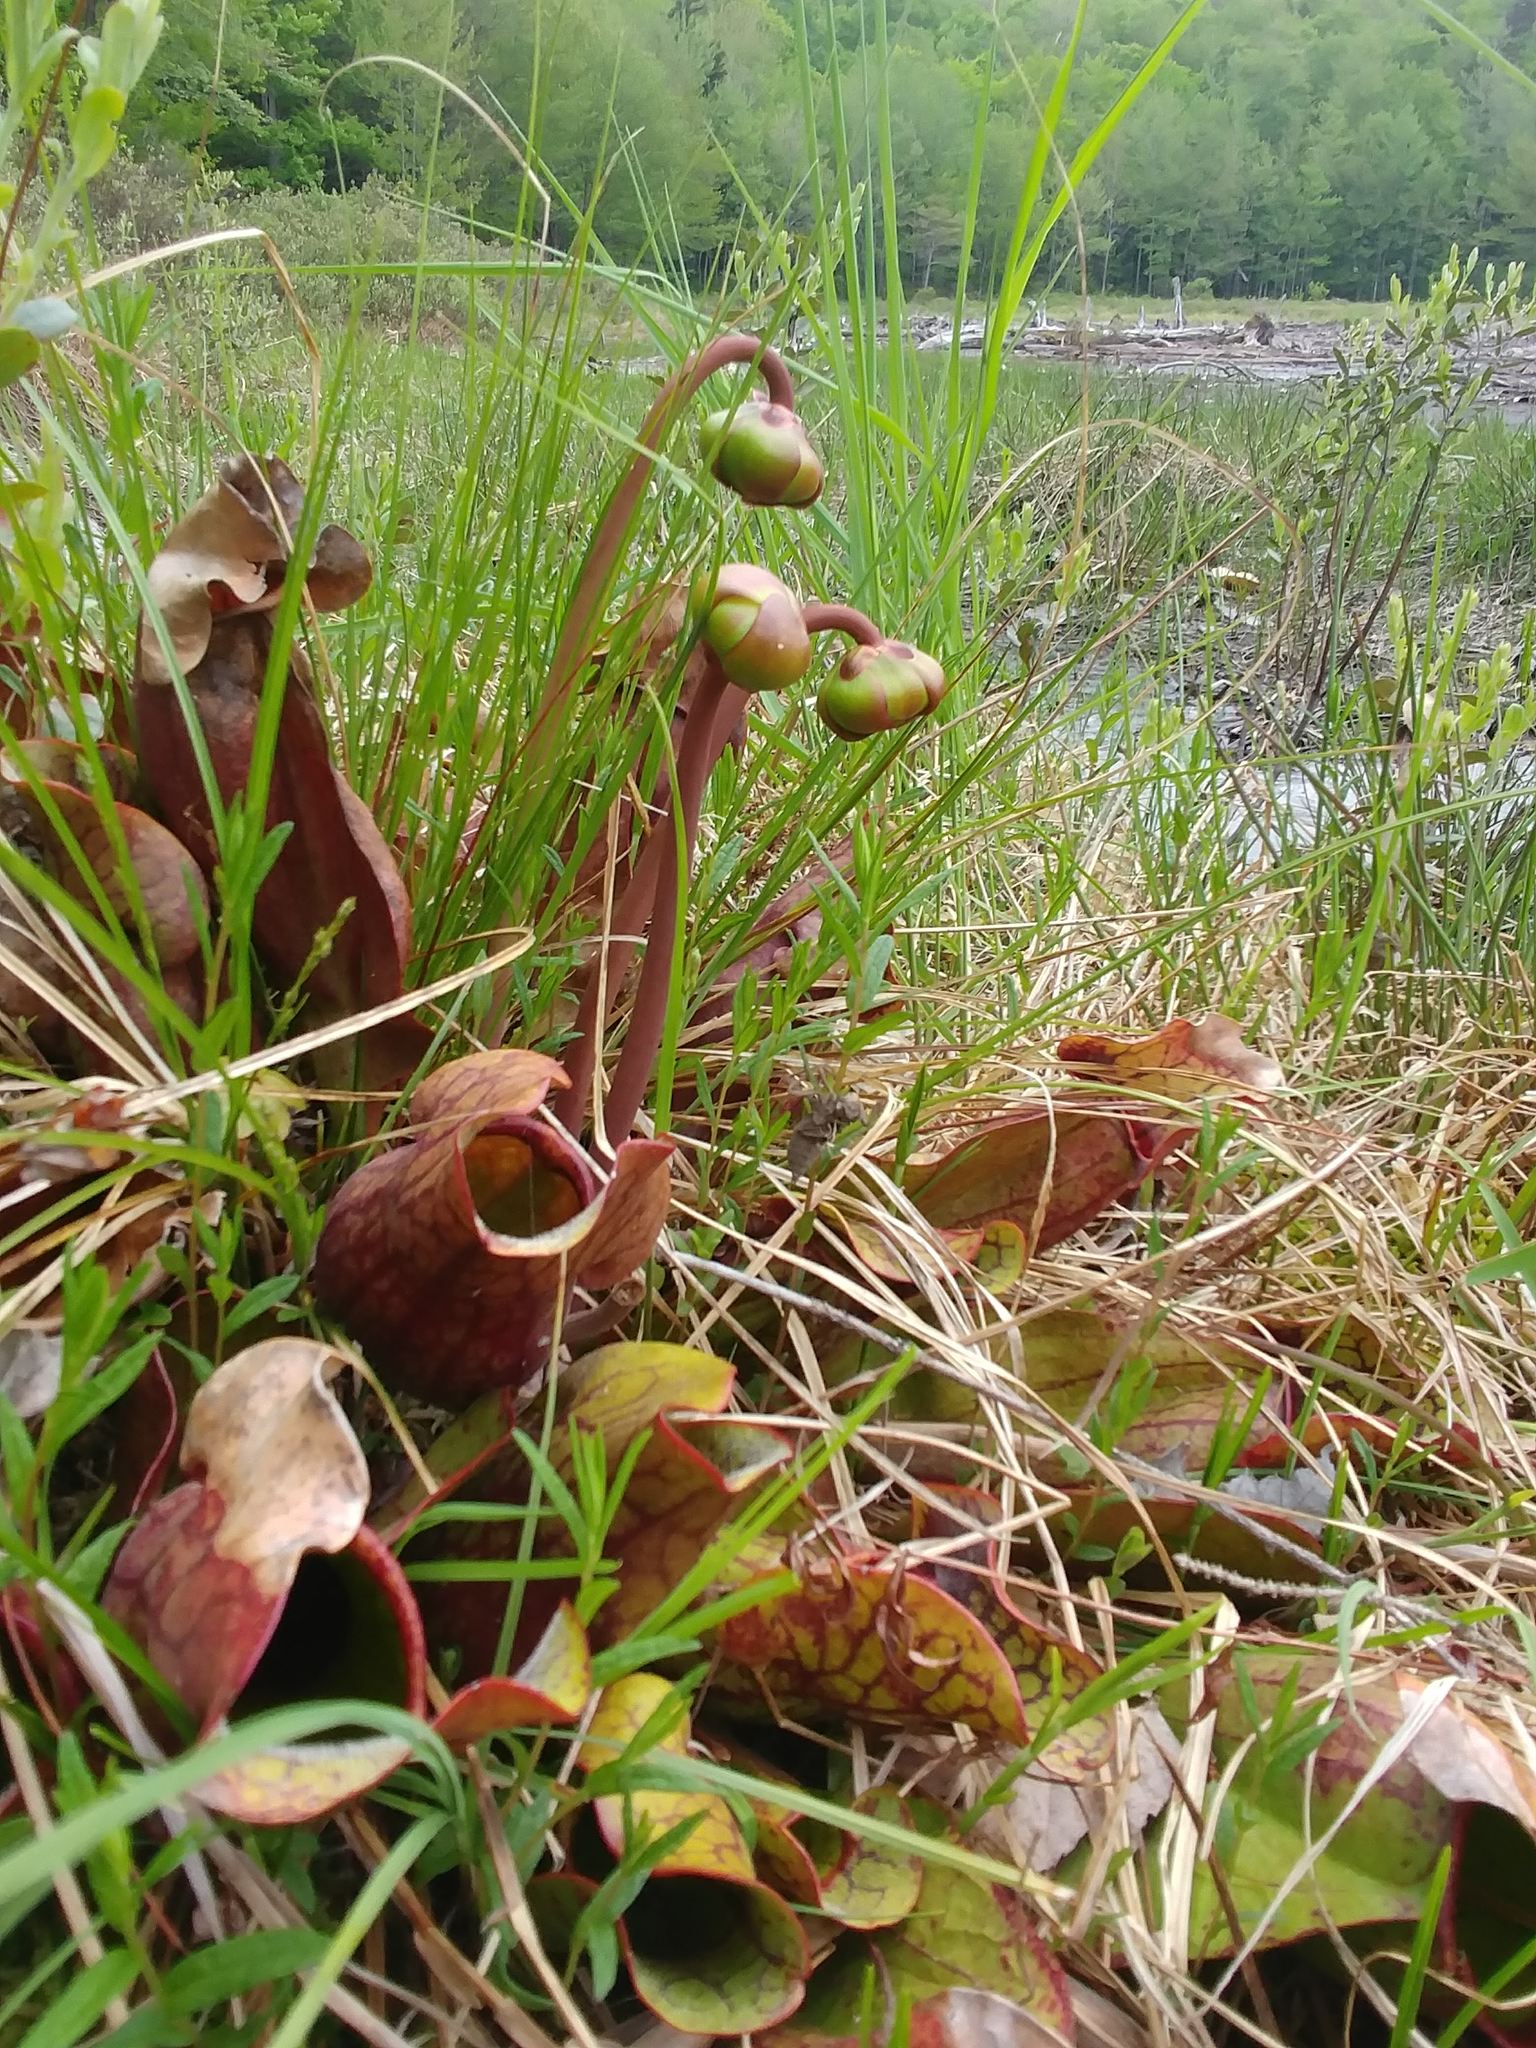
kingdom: Plantae
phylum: Tracheophyta
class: Magnoliopsida
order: Ericales
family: Sarraceniaceae
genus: Sarracenia
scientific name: Sarracenia purpurea
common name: Pitcherplant
